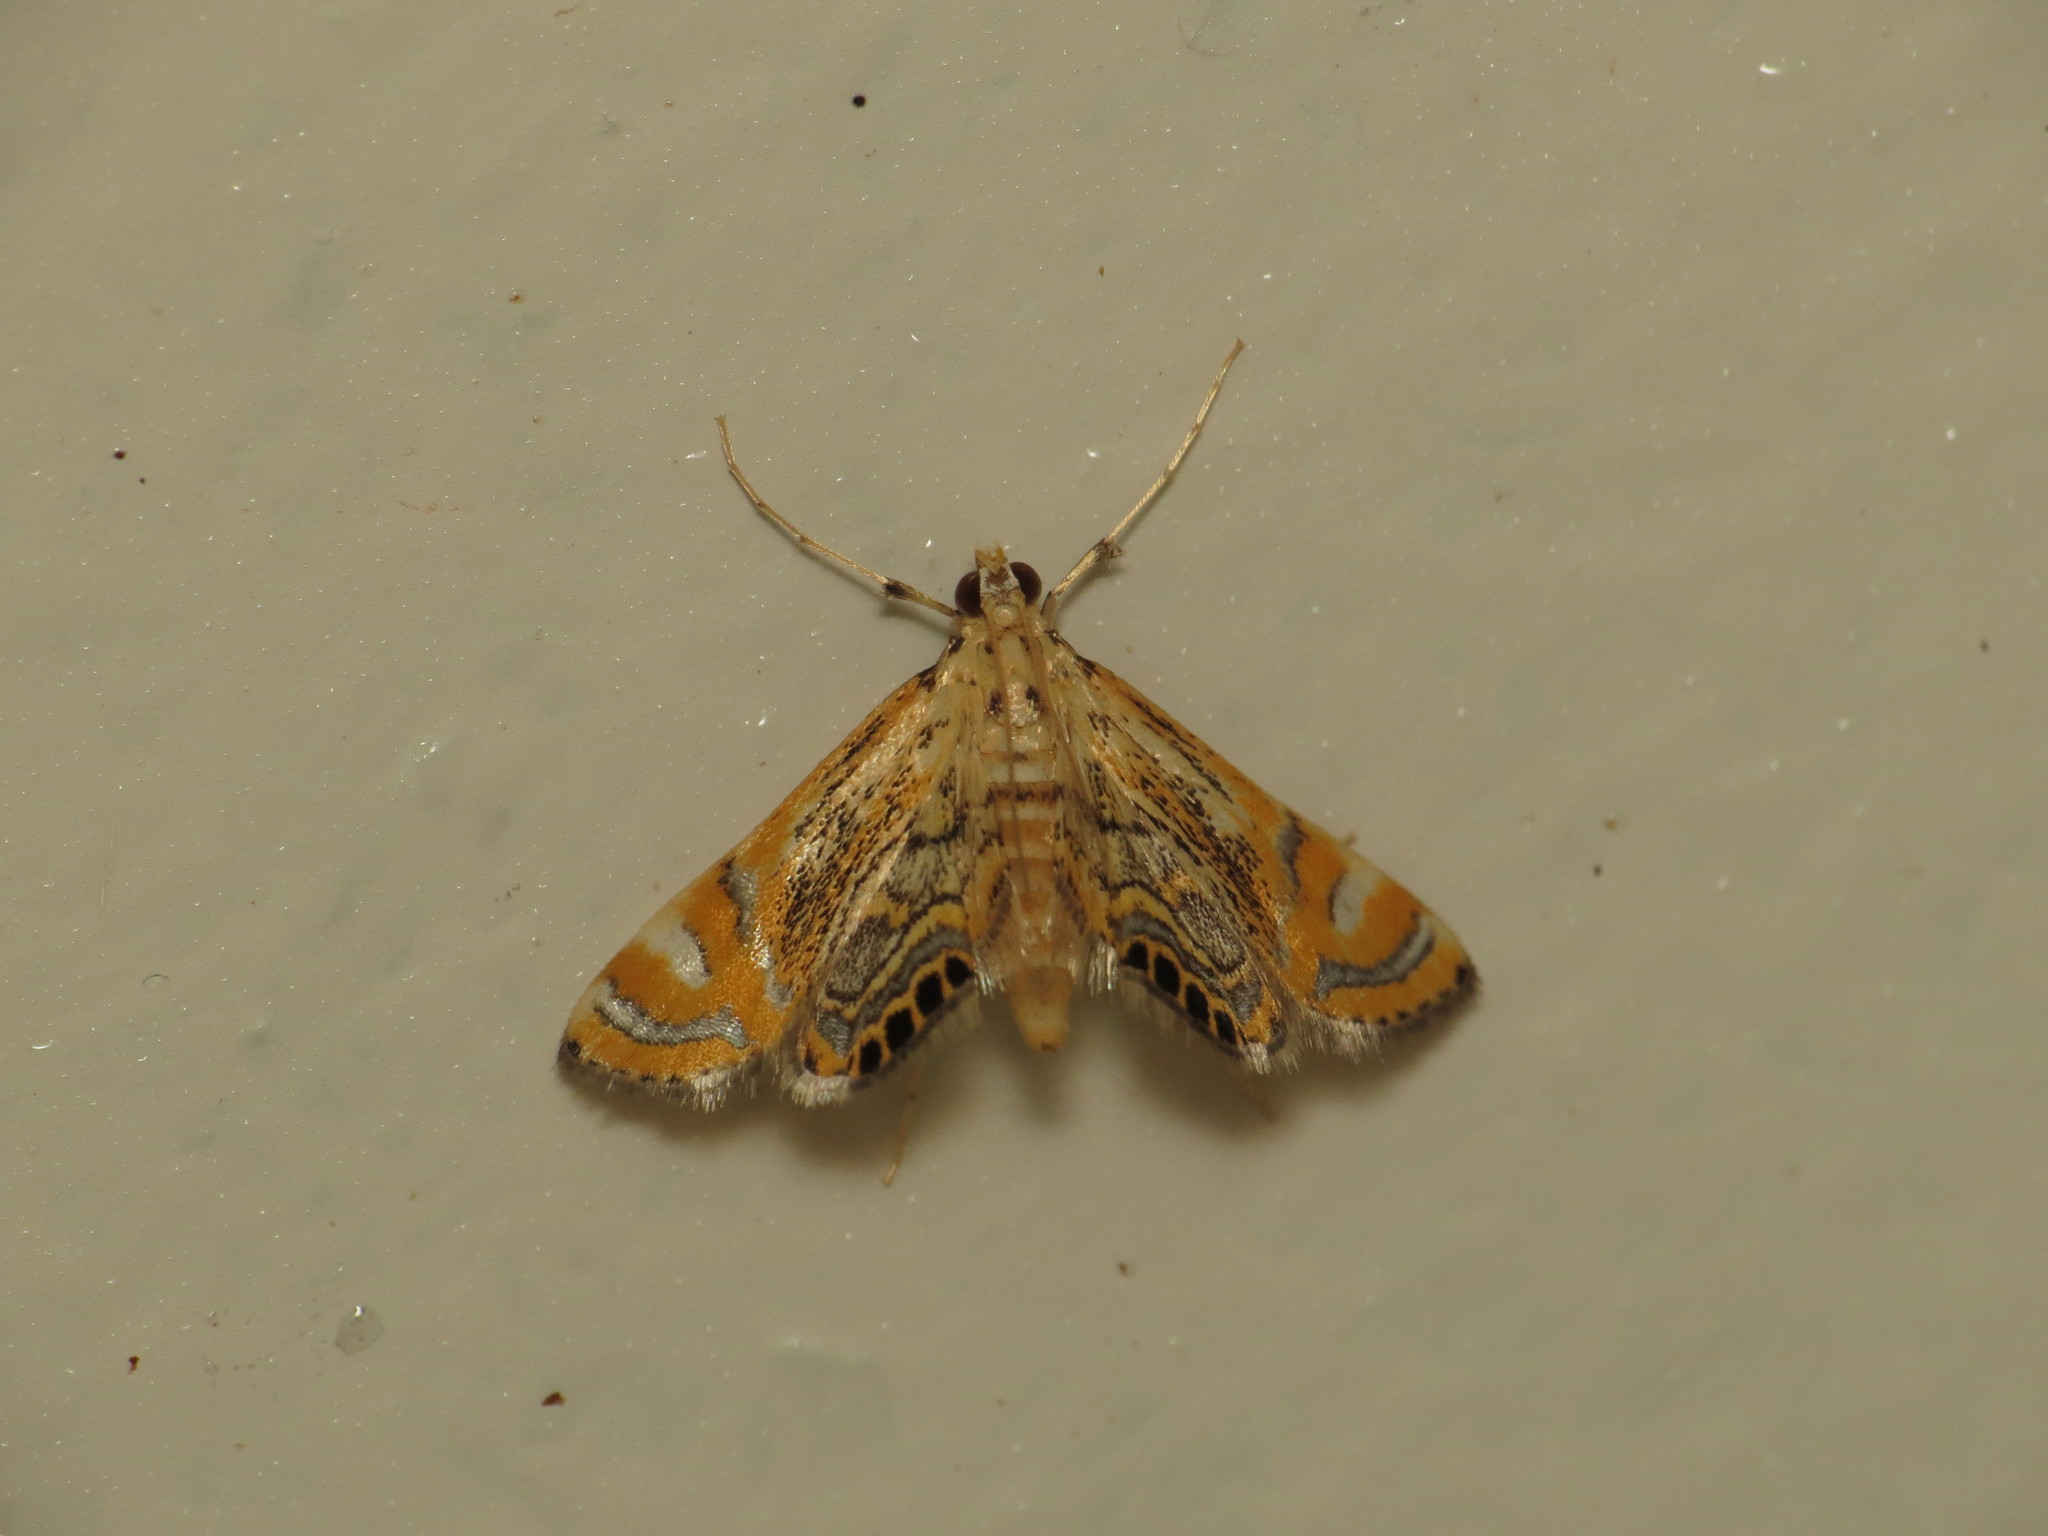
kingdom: Animalia
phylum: Arthropoda
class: Insecta
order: Lepidoptera
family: Crambidae
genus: Cataclysta
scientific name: Cataclysta lampetialis
